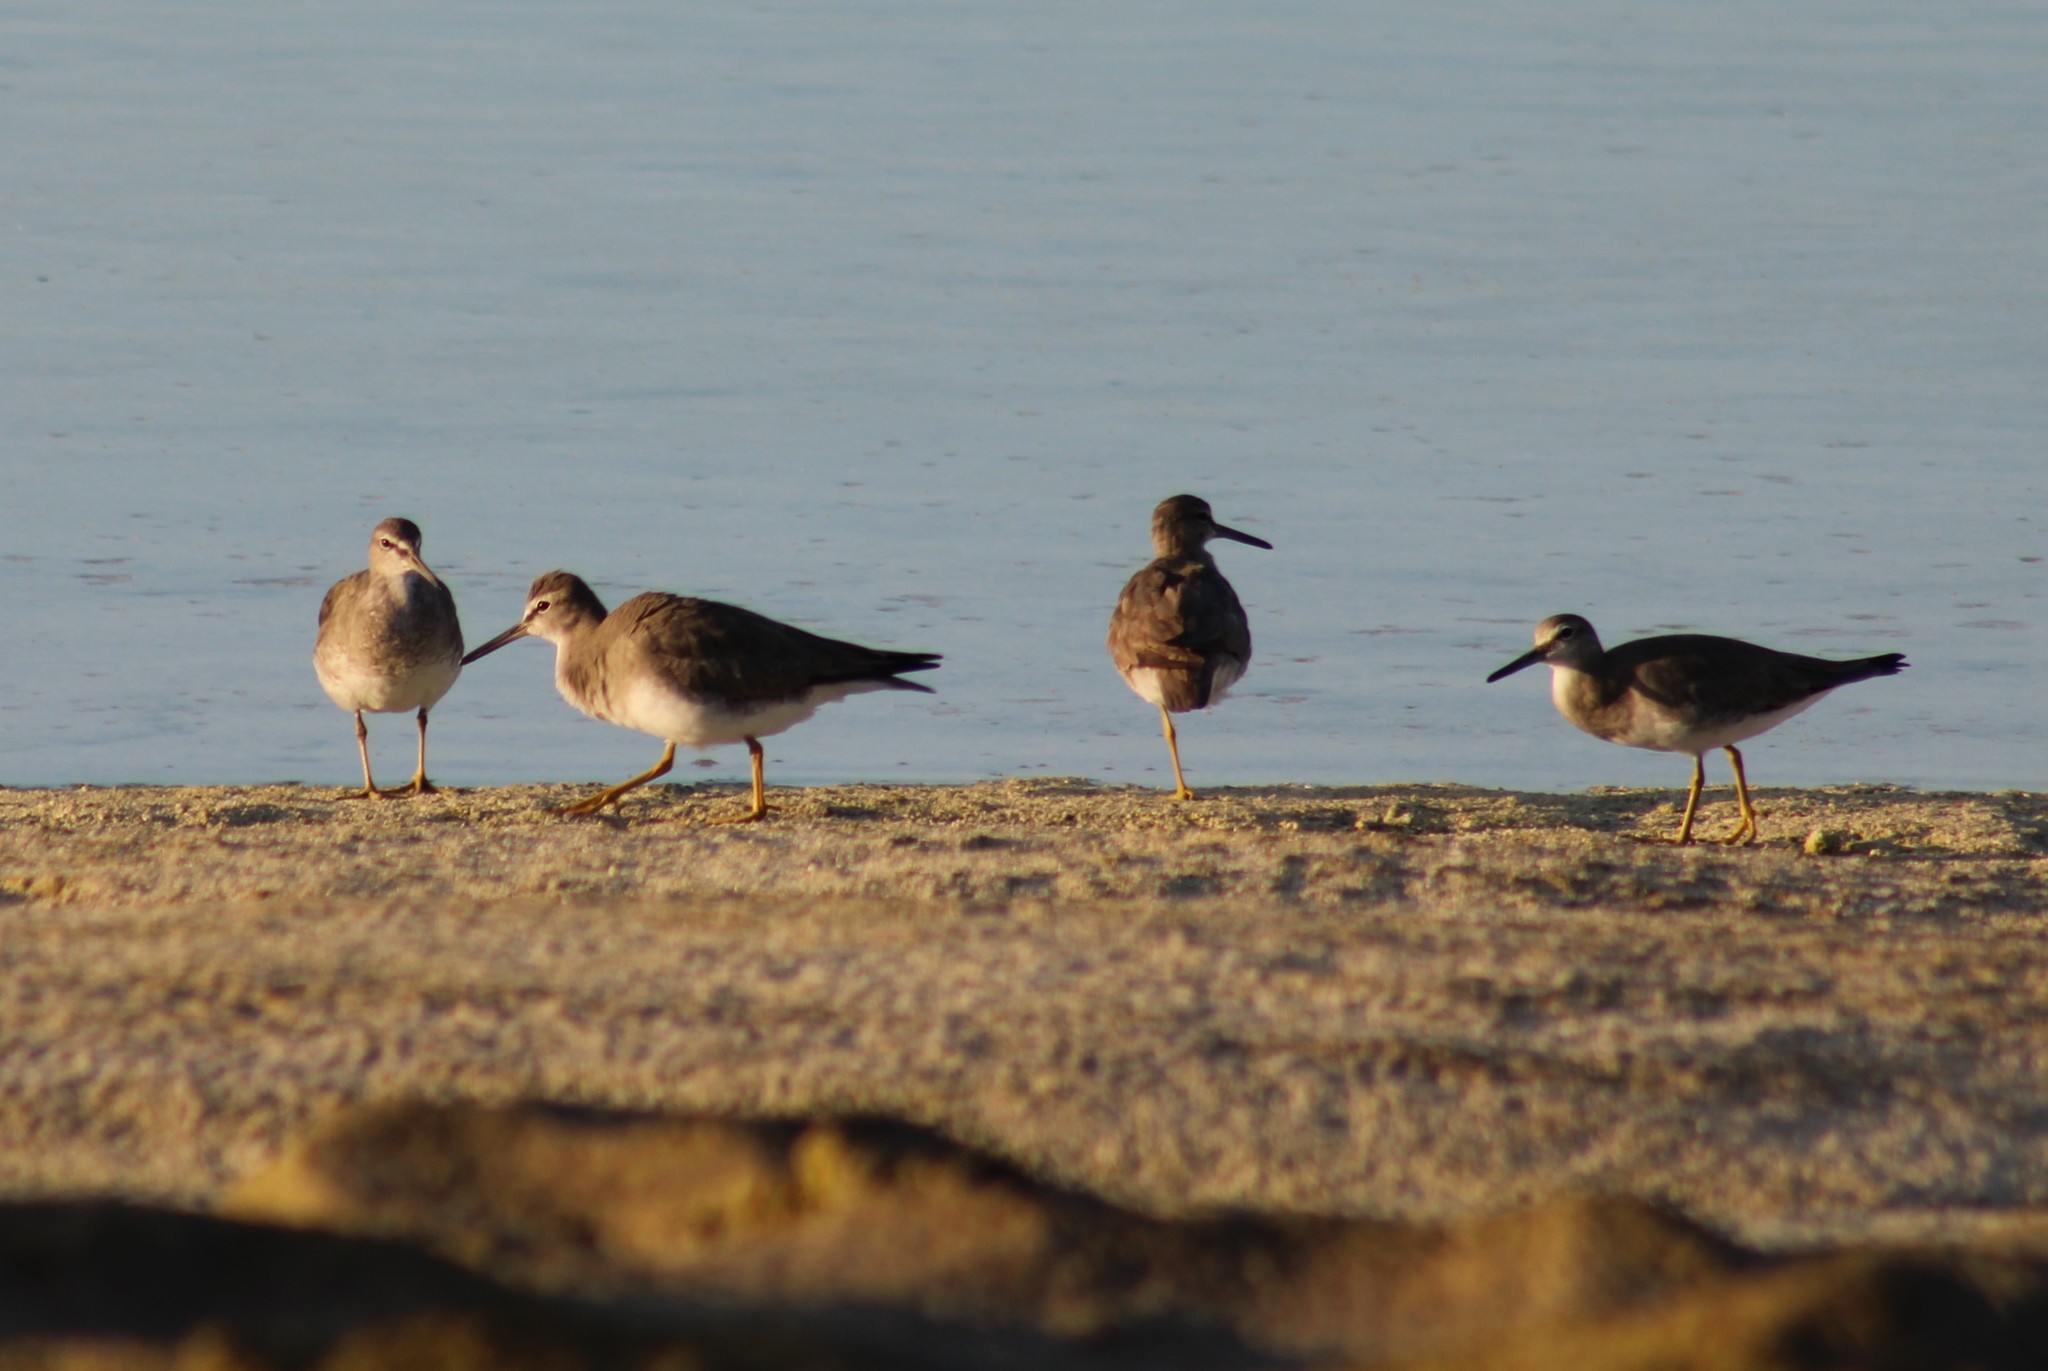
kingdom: Animalia
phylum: Chordata
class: Aves
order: Charadriiformes
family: Scolopacidae
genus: Tringa
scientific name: Tringa brevipes
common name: Grey-tailed tattler
